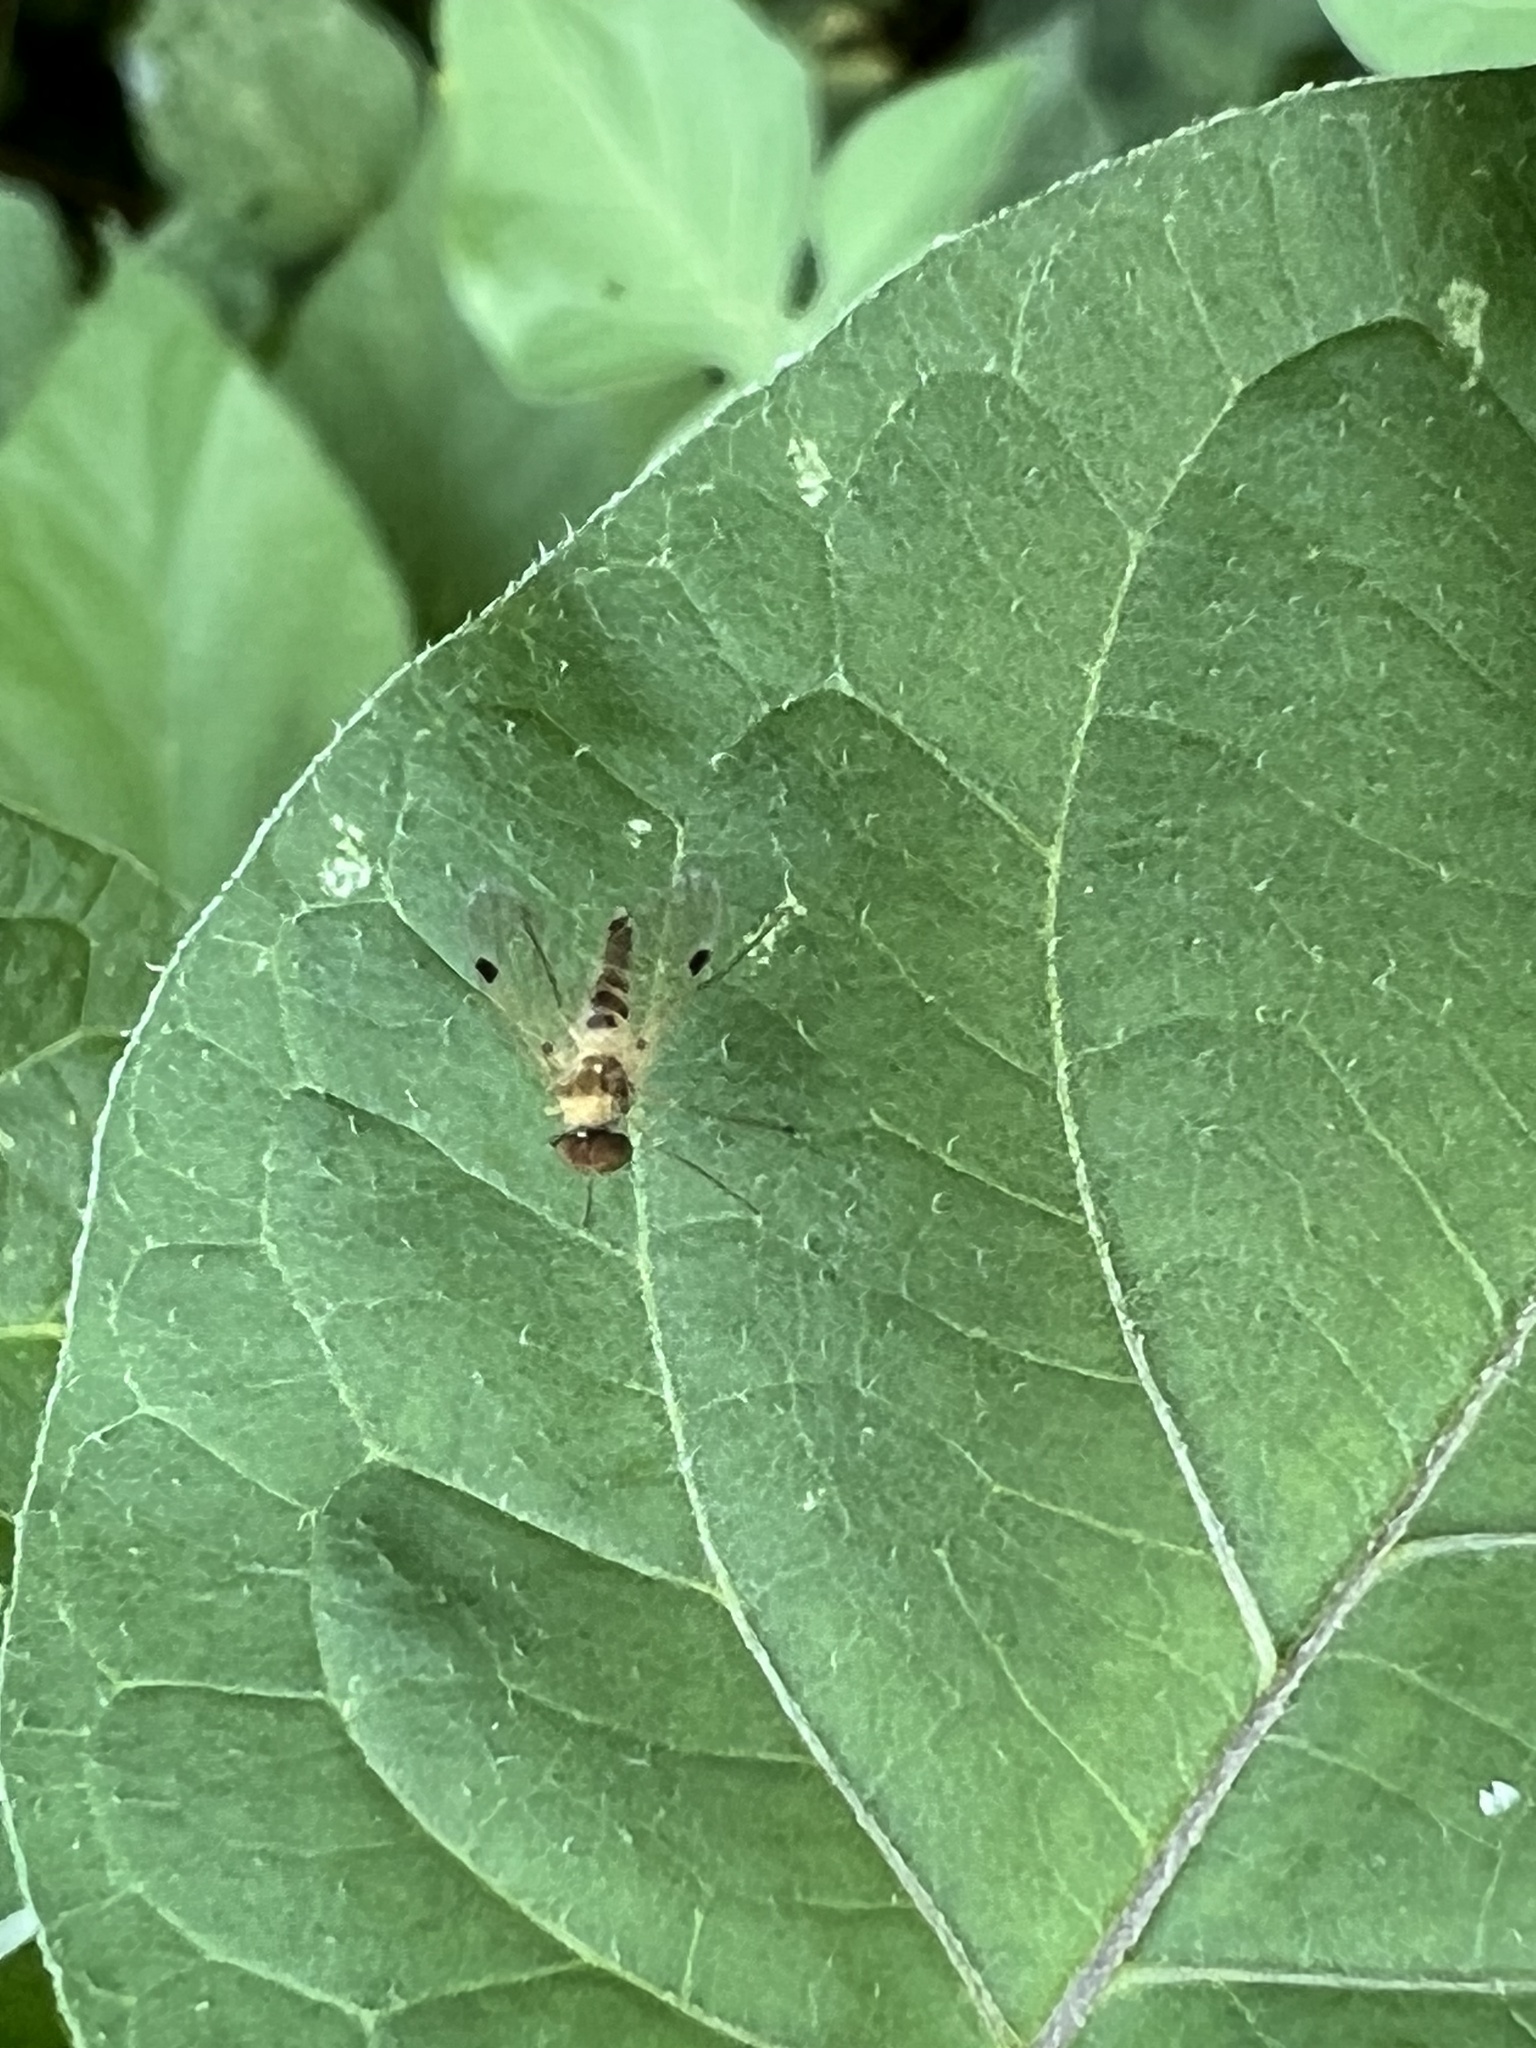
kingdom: Animalia
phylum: Arthropoda
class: Insecta
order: Diptera
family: Rhagionidae
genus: Chrysopilus
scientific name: Chrysopilus modestus
